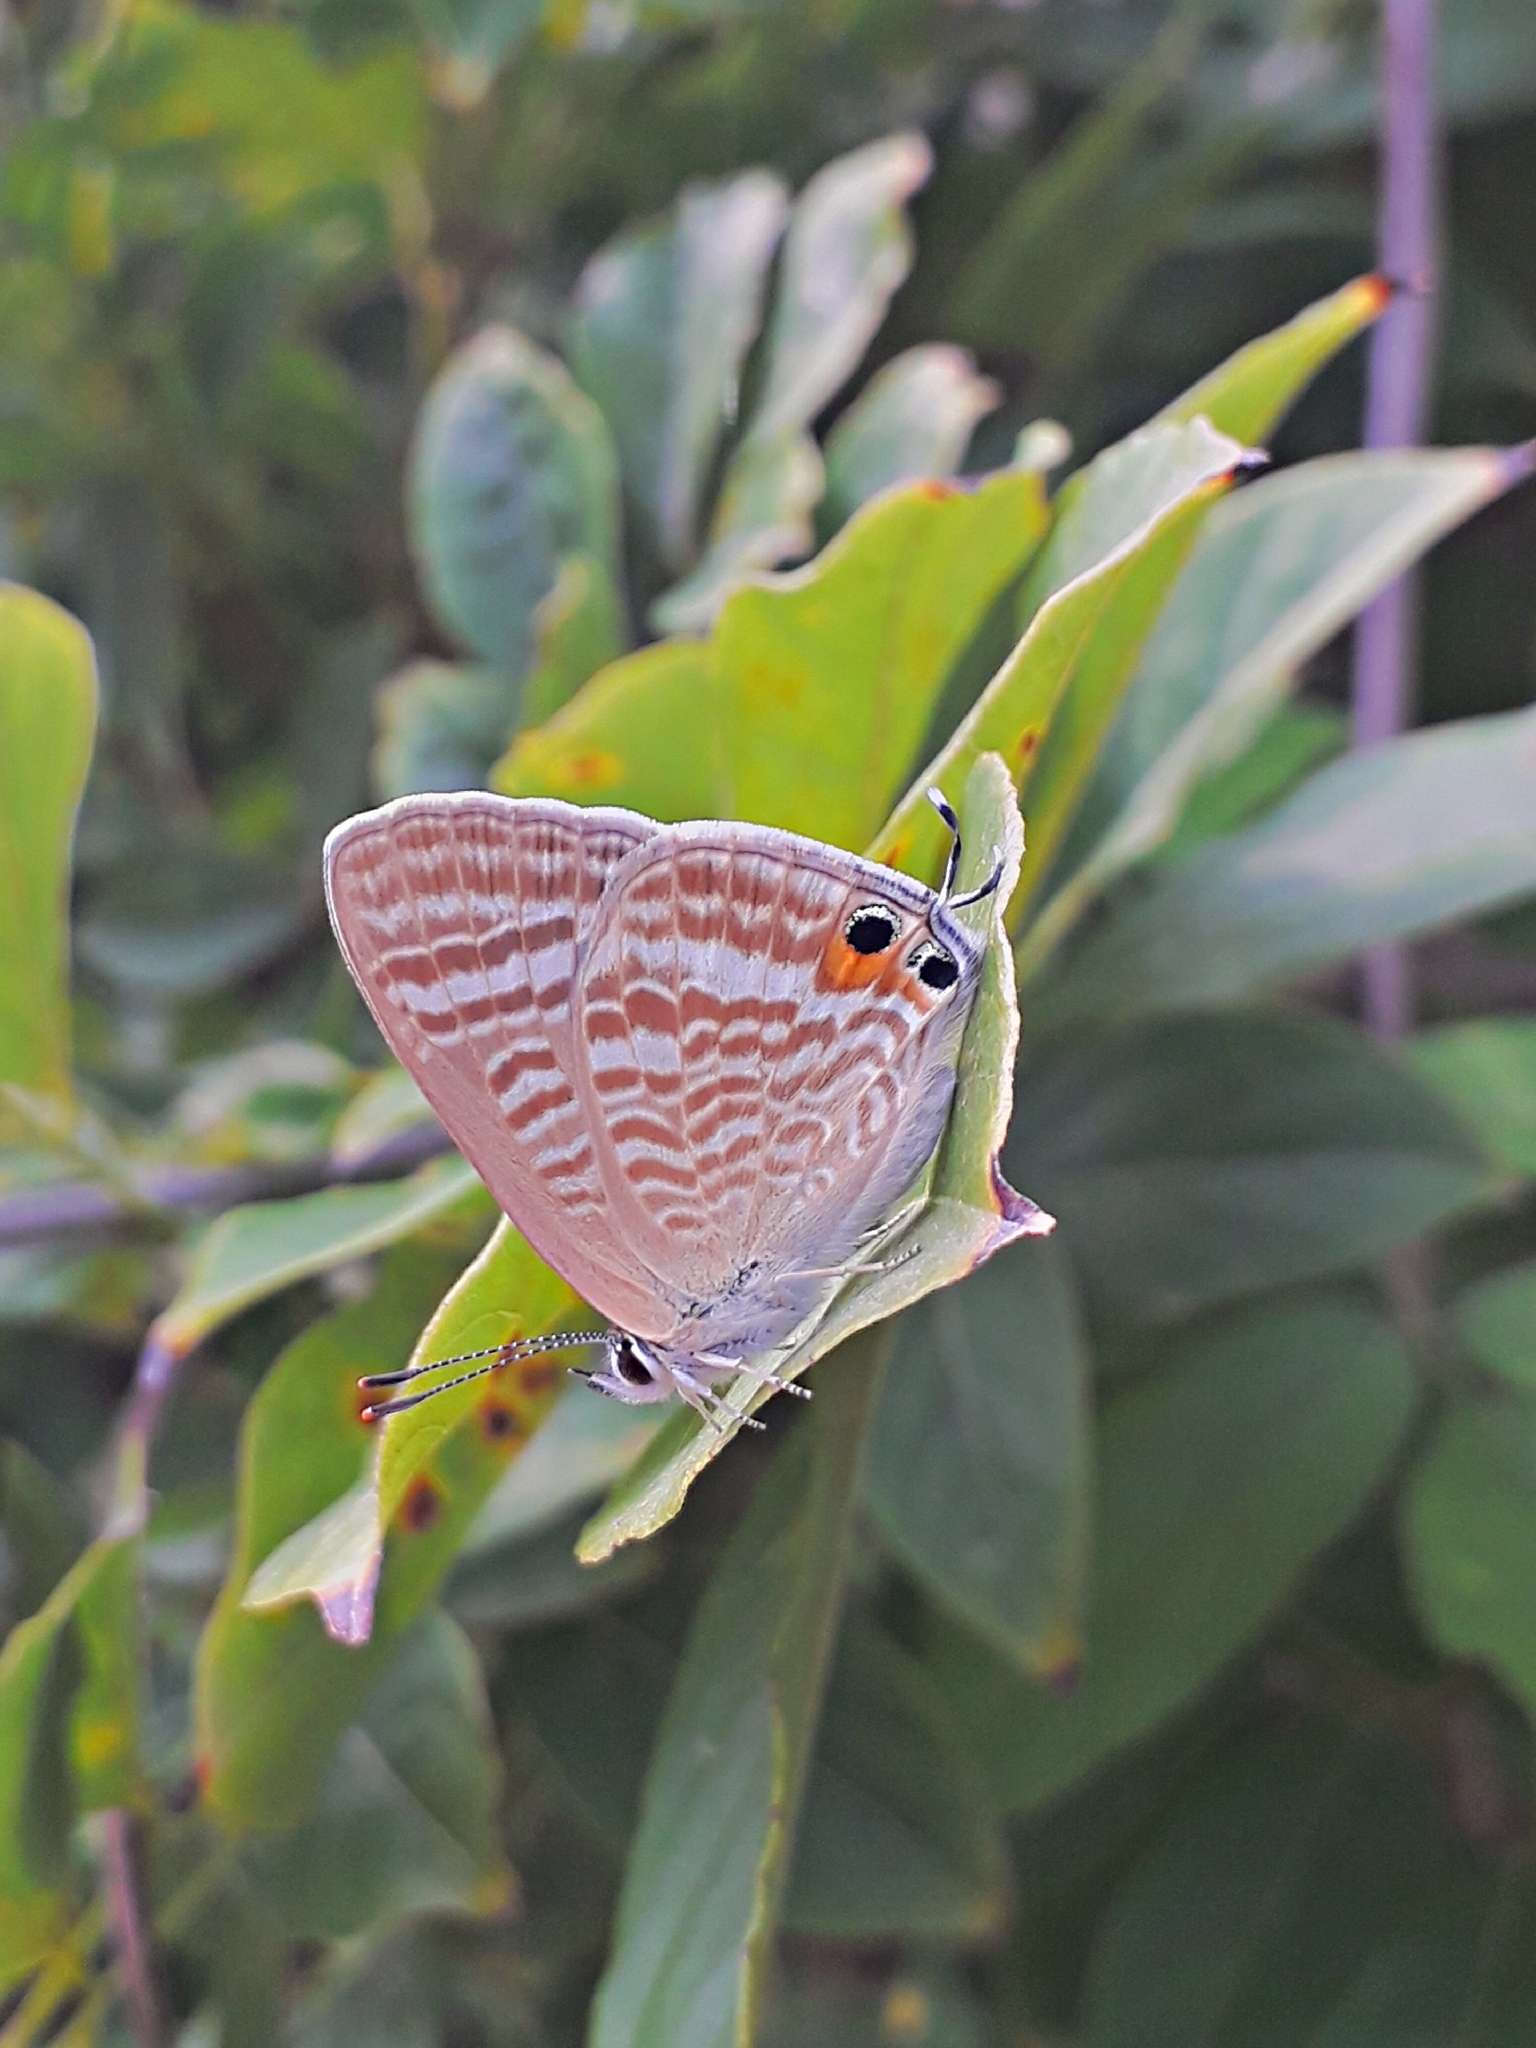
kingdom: Animalia
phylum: Arthropoda
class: Insecta
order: Lepidoptera
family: Lycaenidae
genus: Lampides
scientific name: Lampides boeticus
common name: Long-tailed blue
